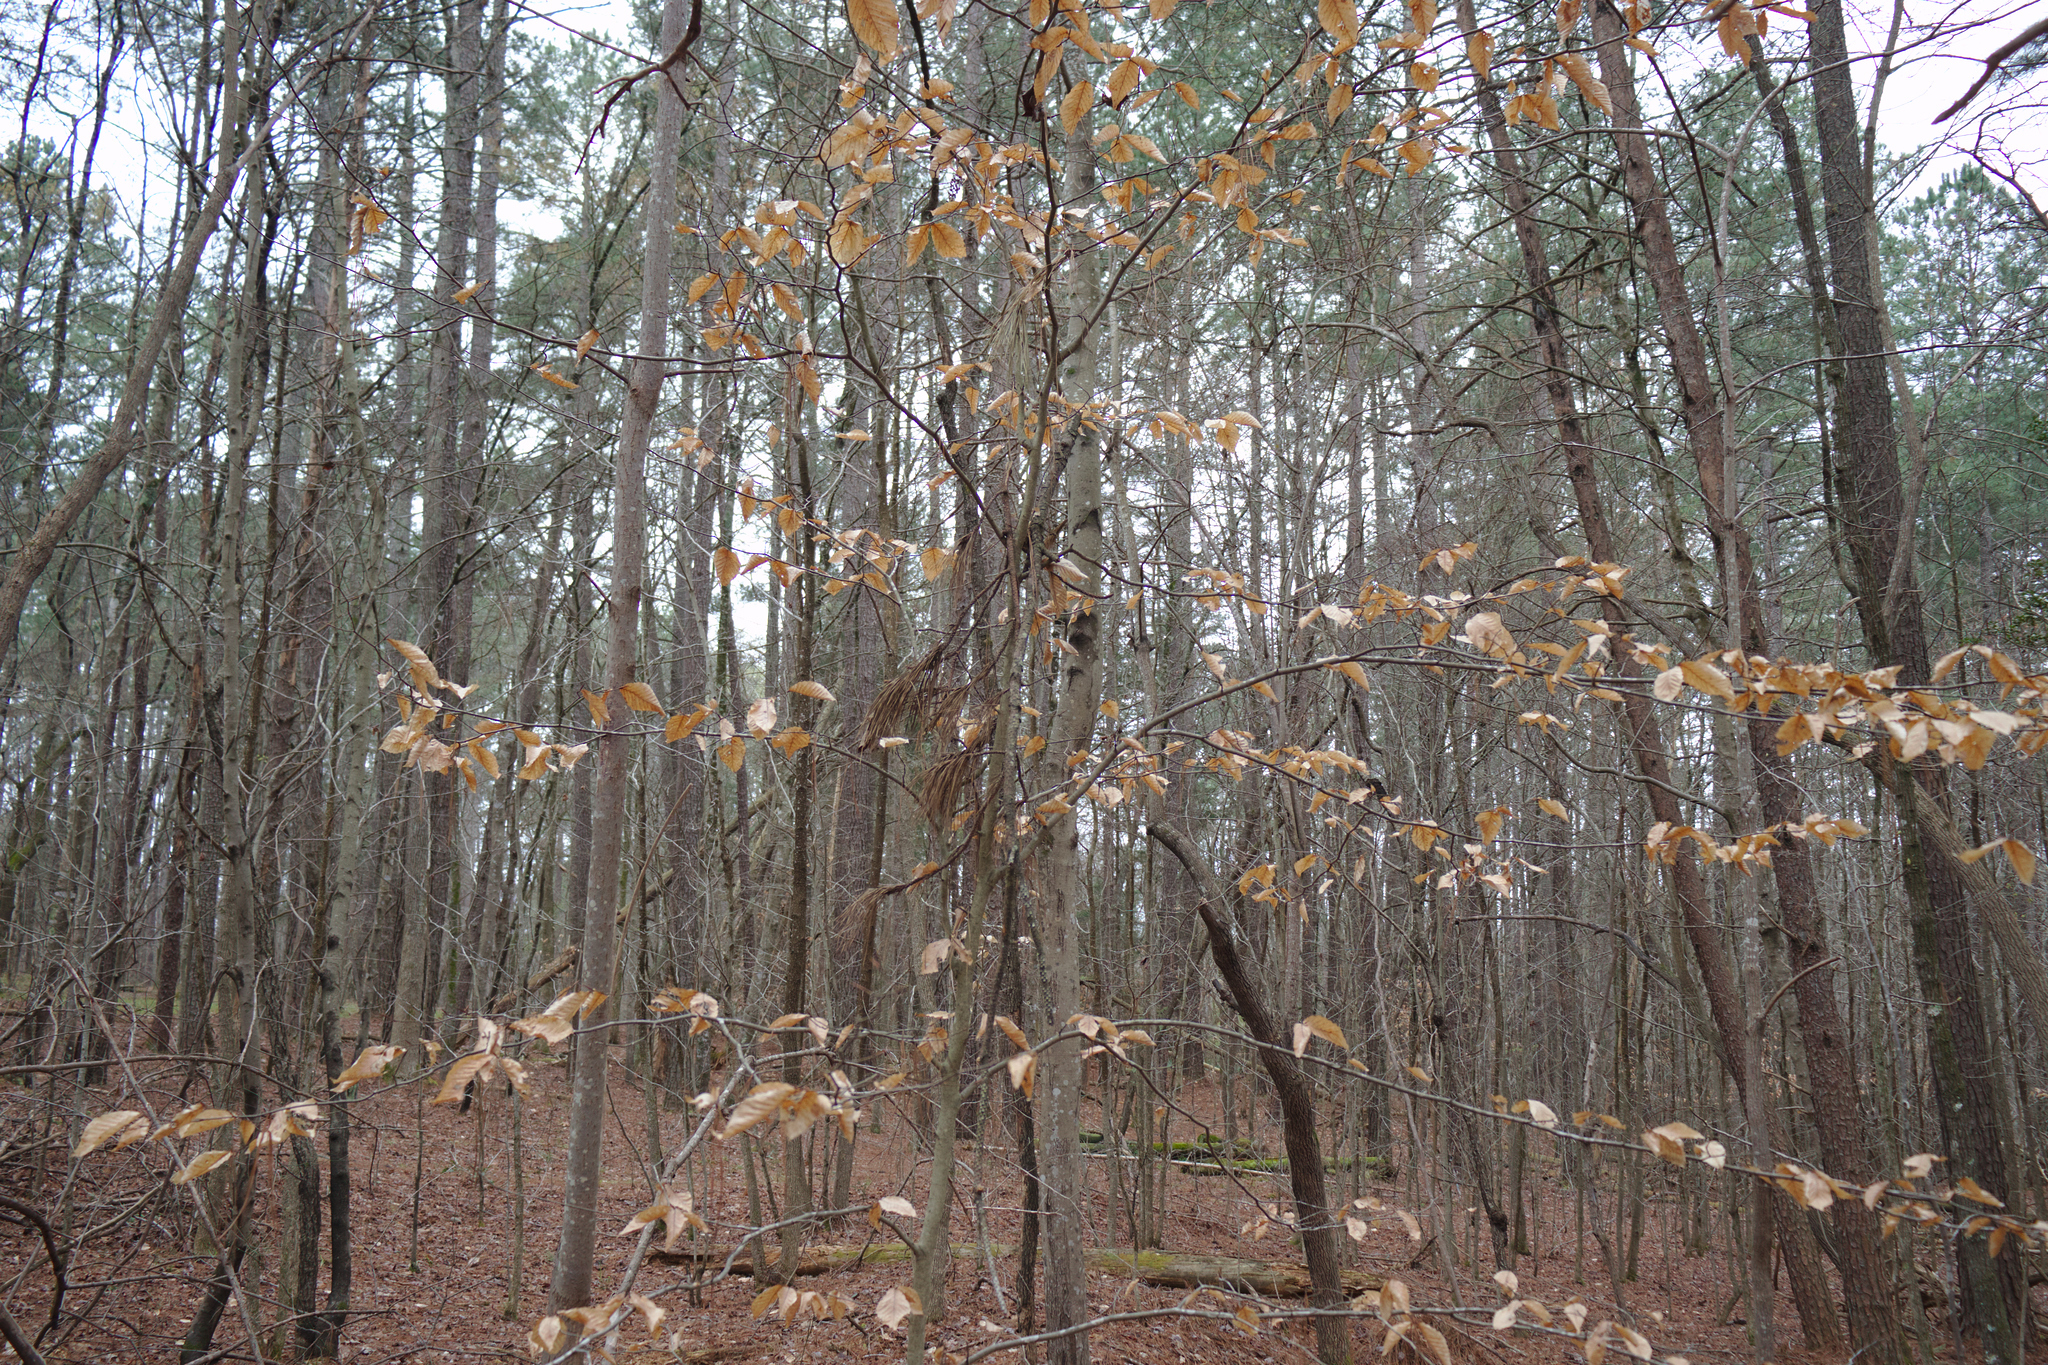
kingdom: Plantae
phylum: Tracheophyta
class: Magnoliopsida
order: Fagales
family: Fagaceae
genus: Fagus
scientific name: Fagus grandifolia
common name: American beech
